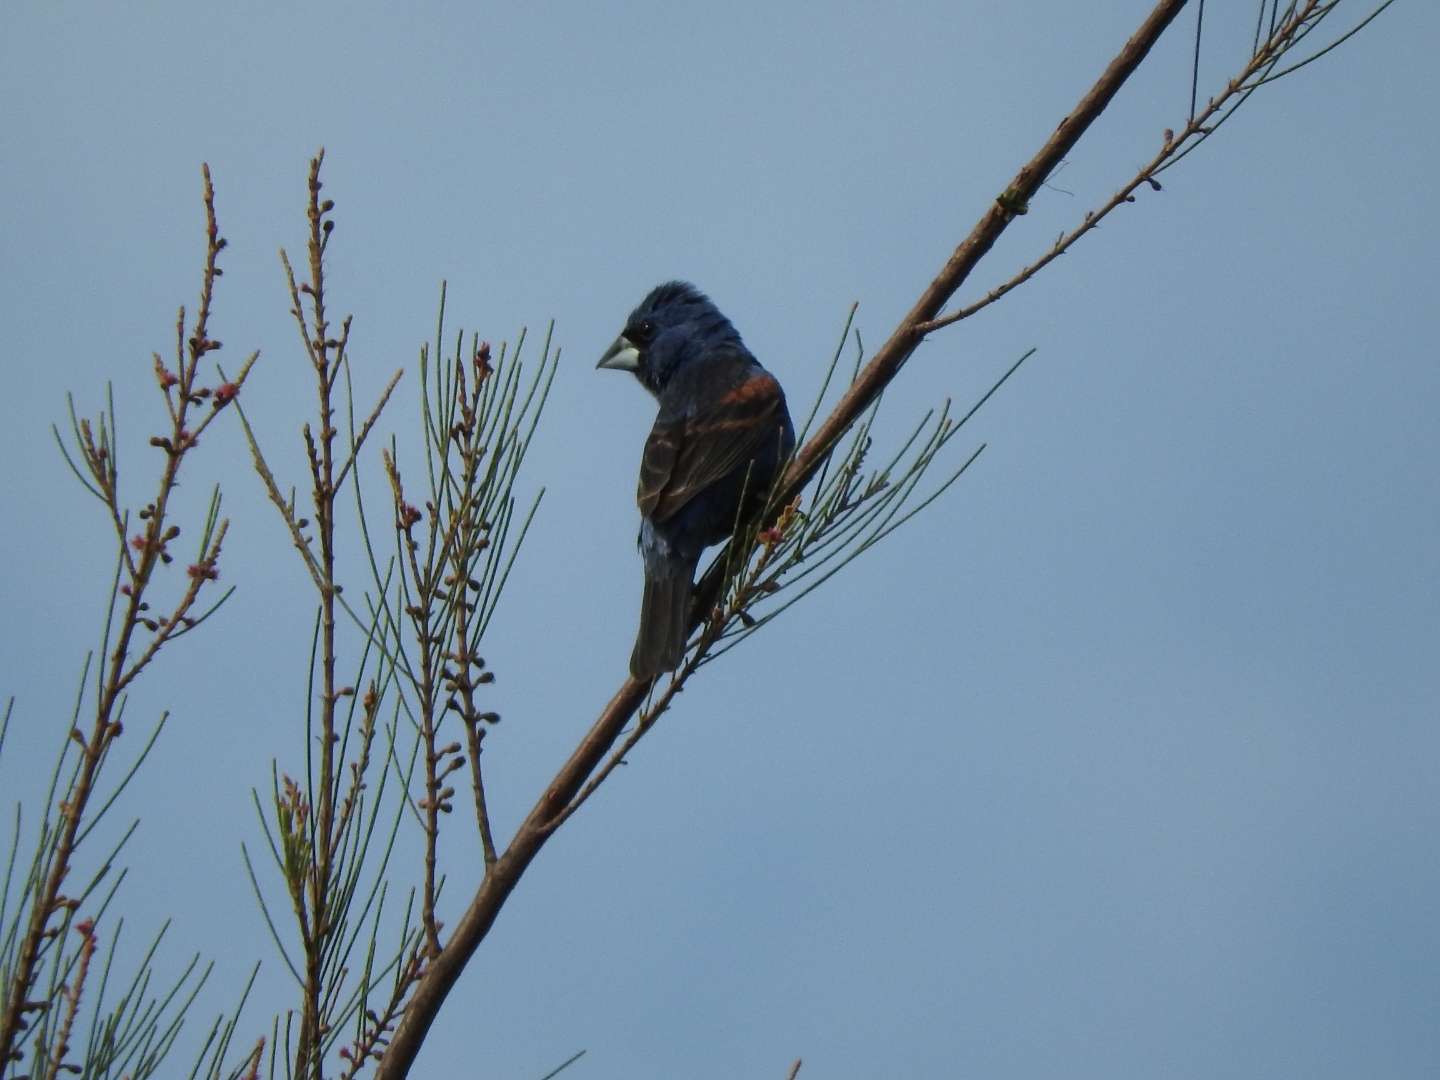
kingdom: Animalia
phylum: Chordata
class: Aves
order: Passeriformes
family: Cardinalidae
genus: Passerina
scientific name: Passerina caerulea
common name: Blue grosbeak
